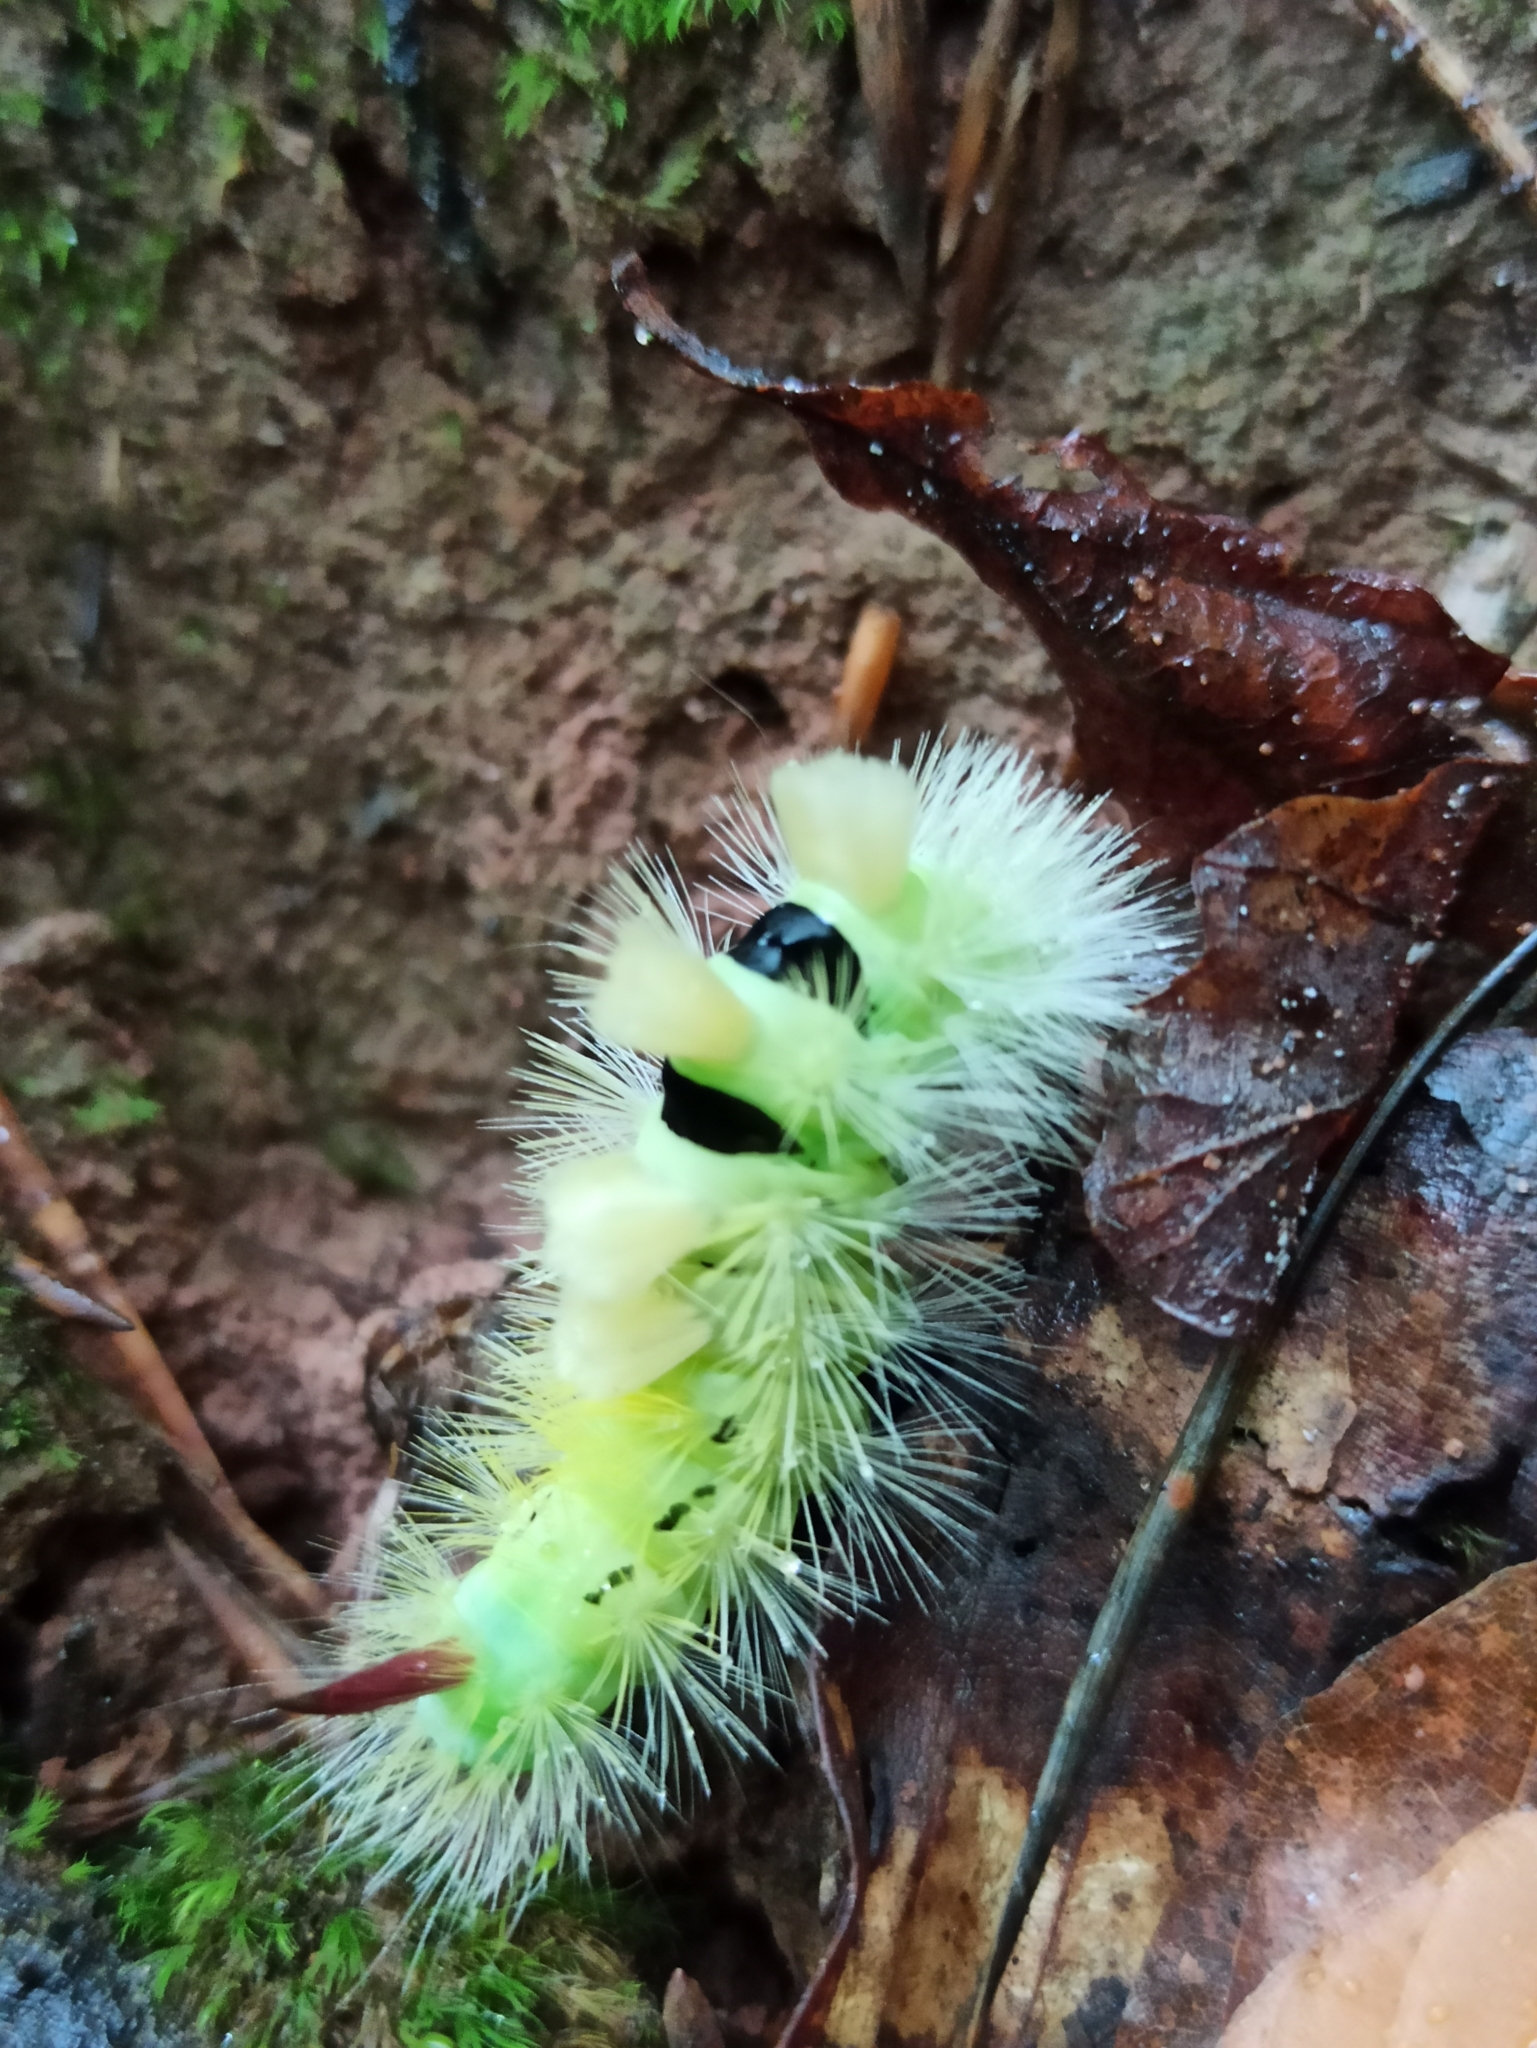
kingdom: Animalia
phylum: Arthropoda
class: Insecta
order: Lepidoptera
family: Erebidae
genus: Calliteara
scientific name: Calliteara pudibunda
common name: Pale tussock
